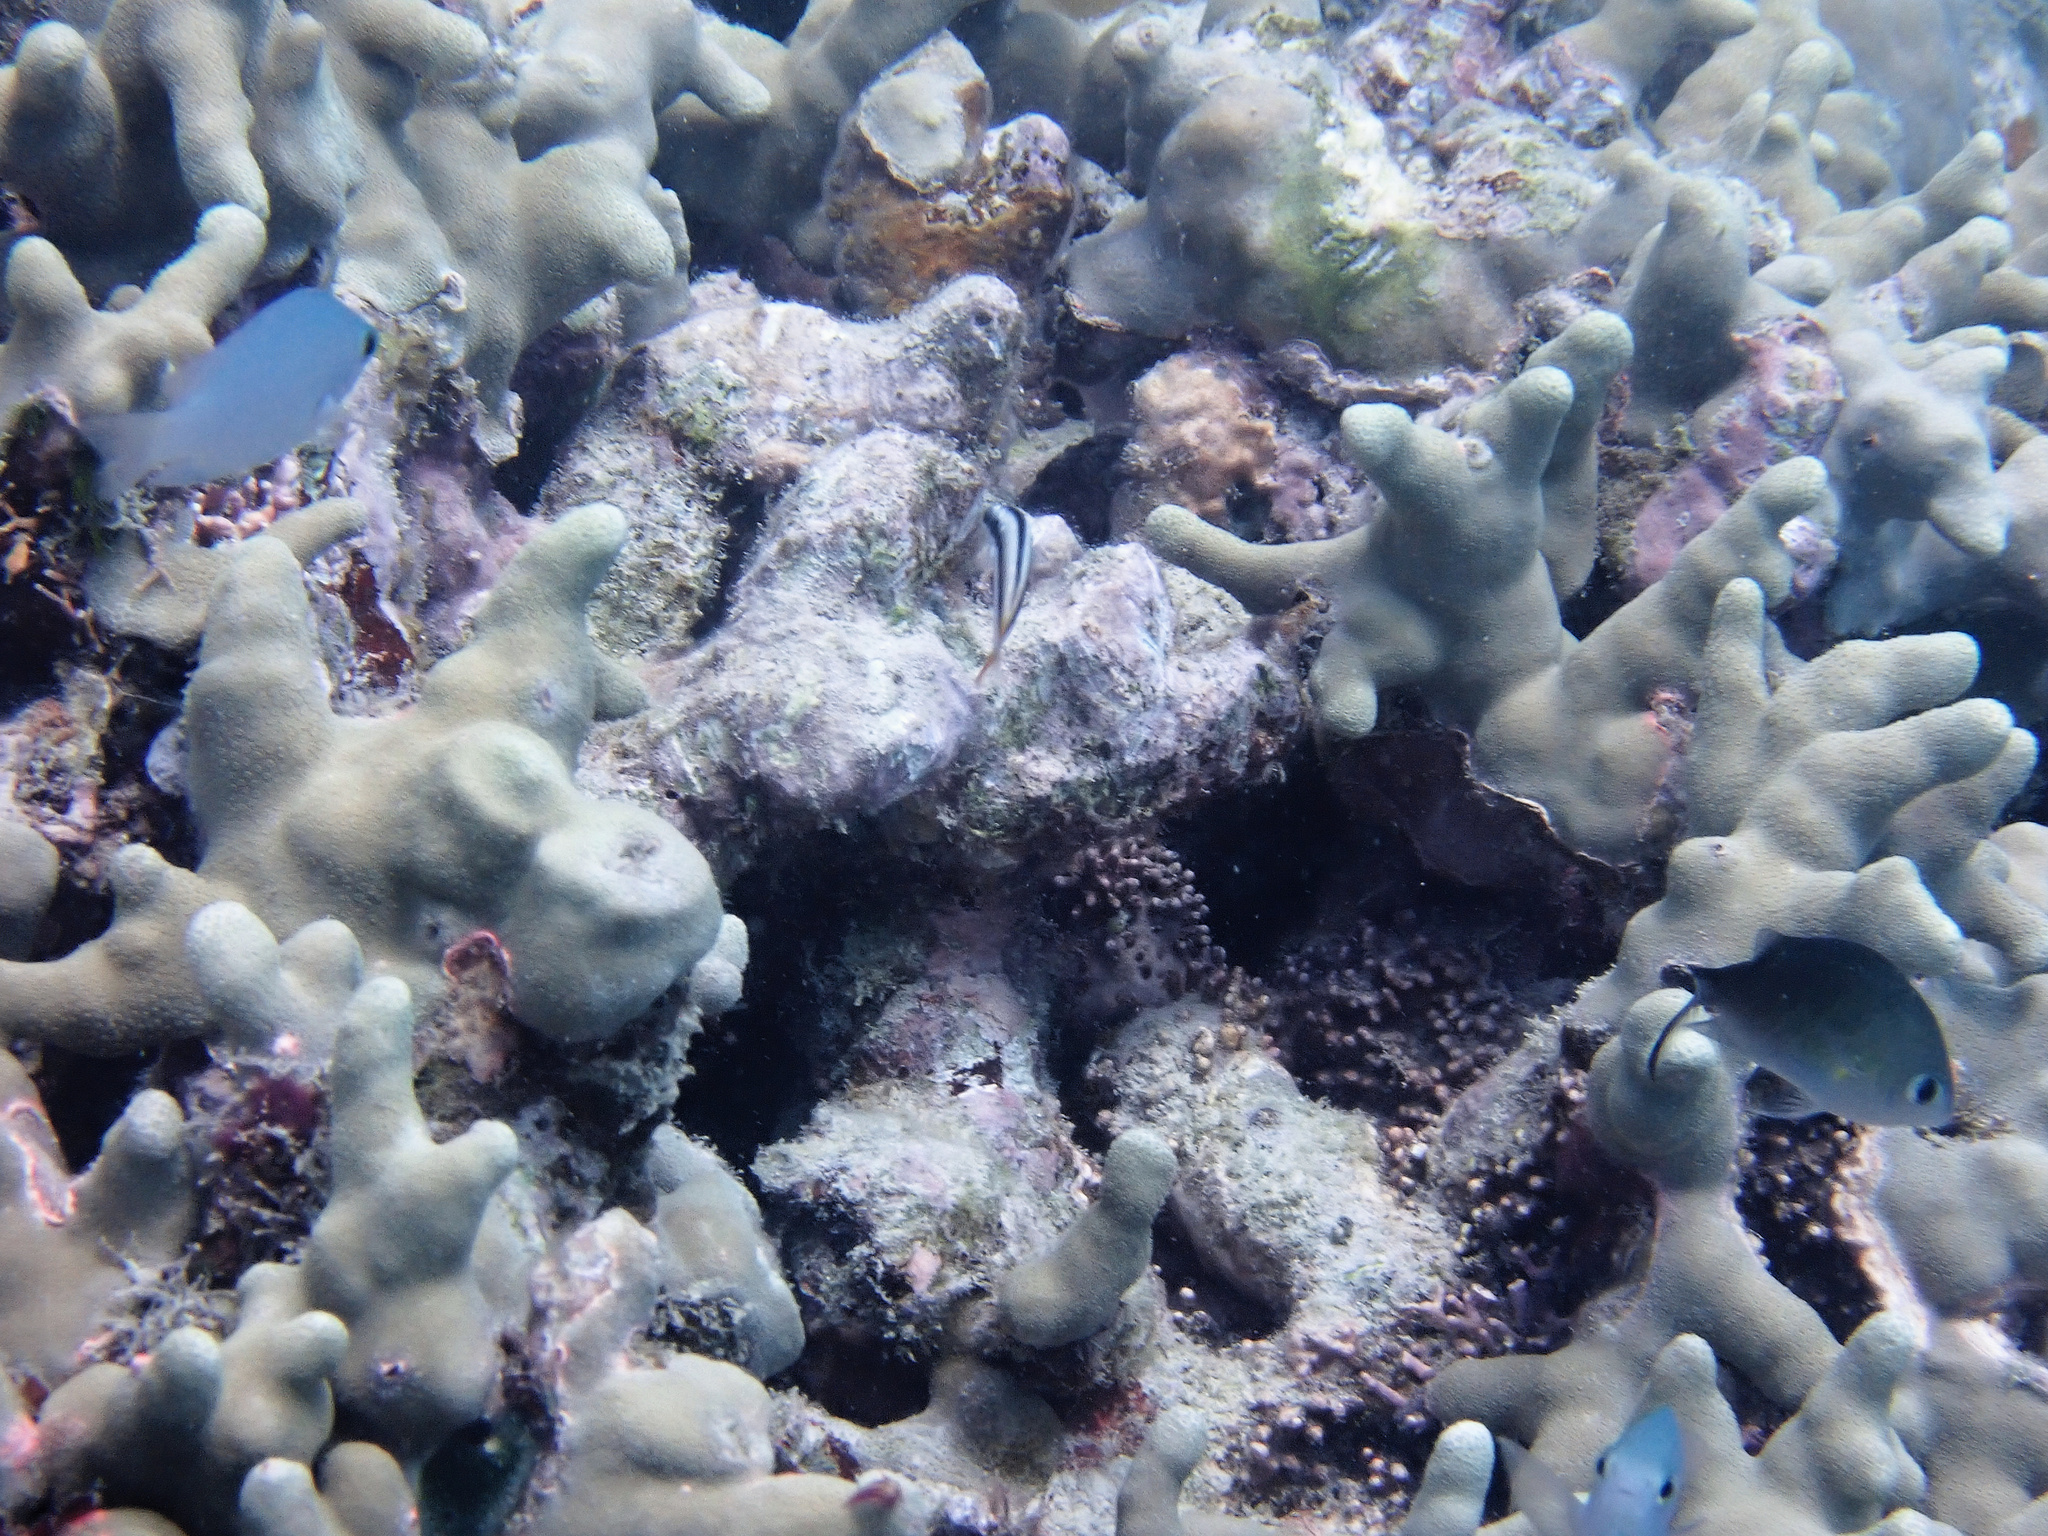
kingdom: Animalia
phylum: Cnidaria
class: Anthozoa
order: Scleractinia
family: Poritidae
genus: Porites
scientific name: Porites cylindrica
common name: Hump coral
